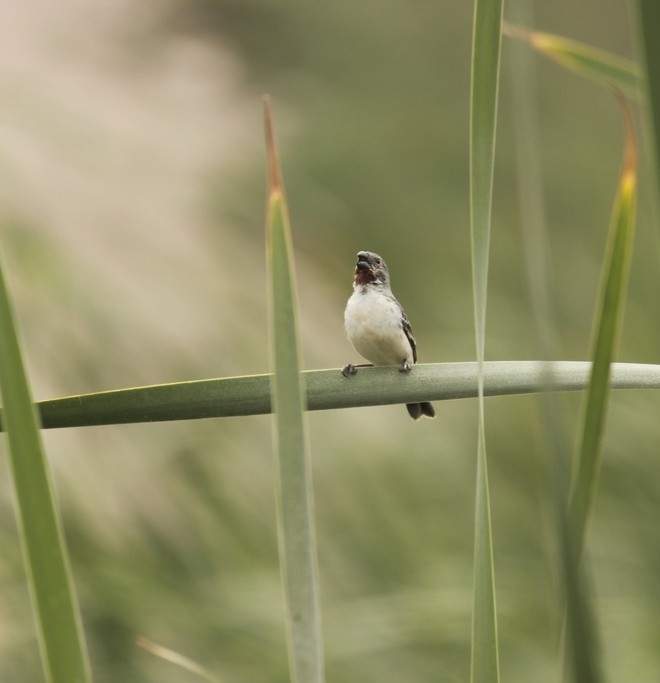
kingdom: Animalia
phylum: Chordata
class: Aves
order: Passeriformes
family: Thraupidae
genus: Sporophila
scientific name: Sporophila telasco
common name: Chestnut-throated seedeater
